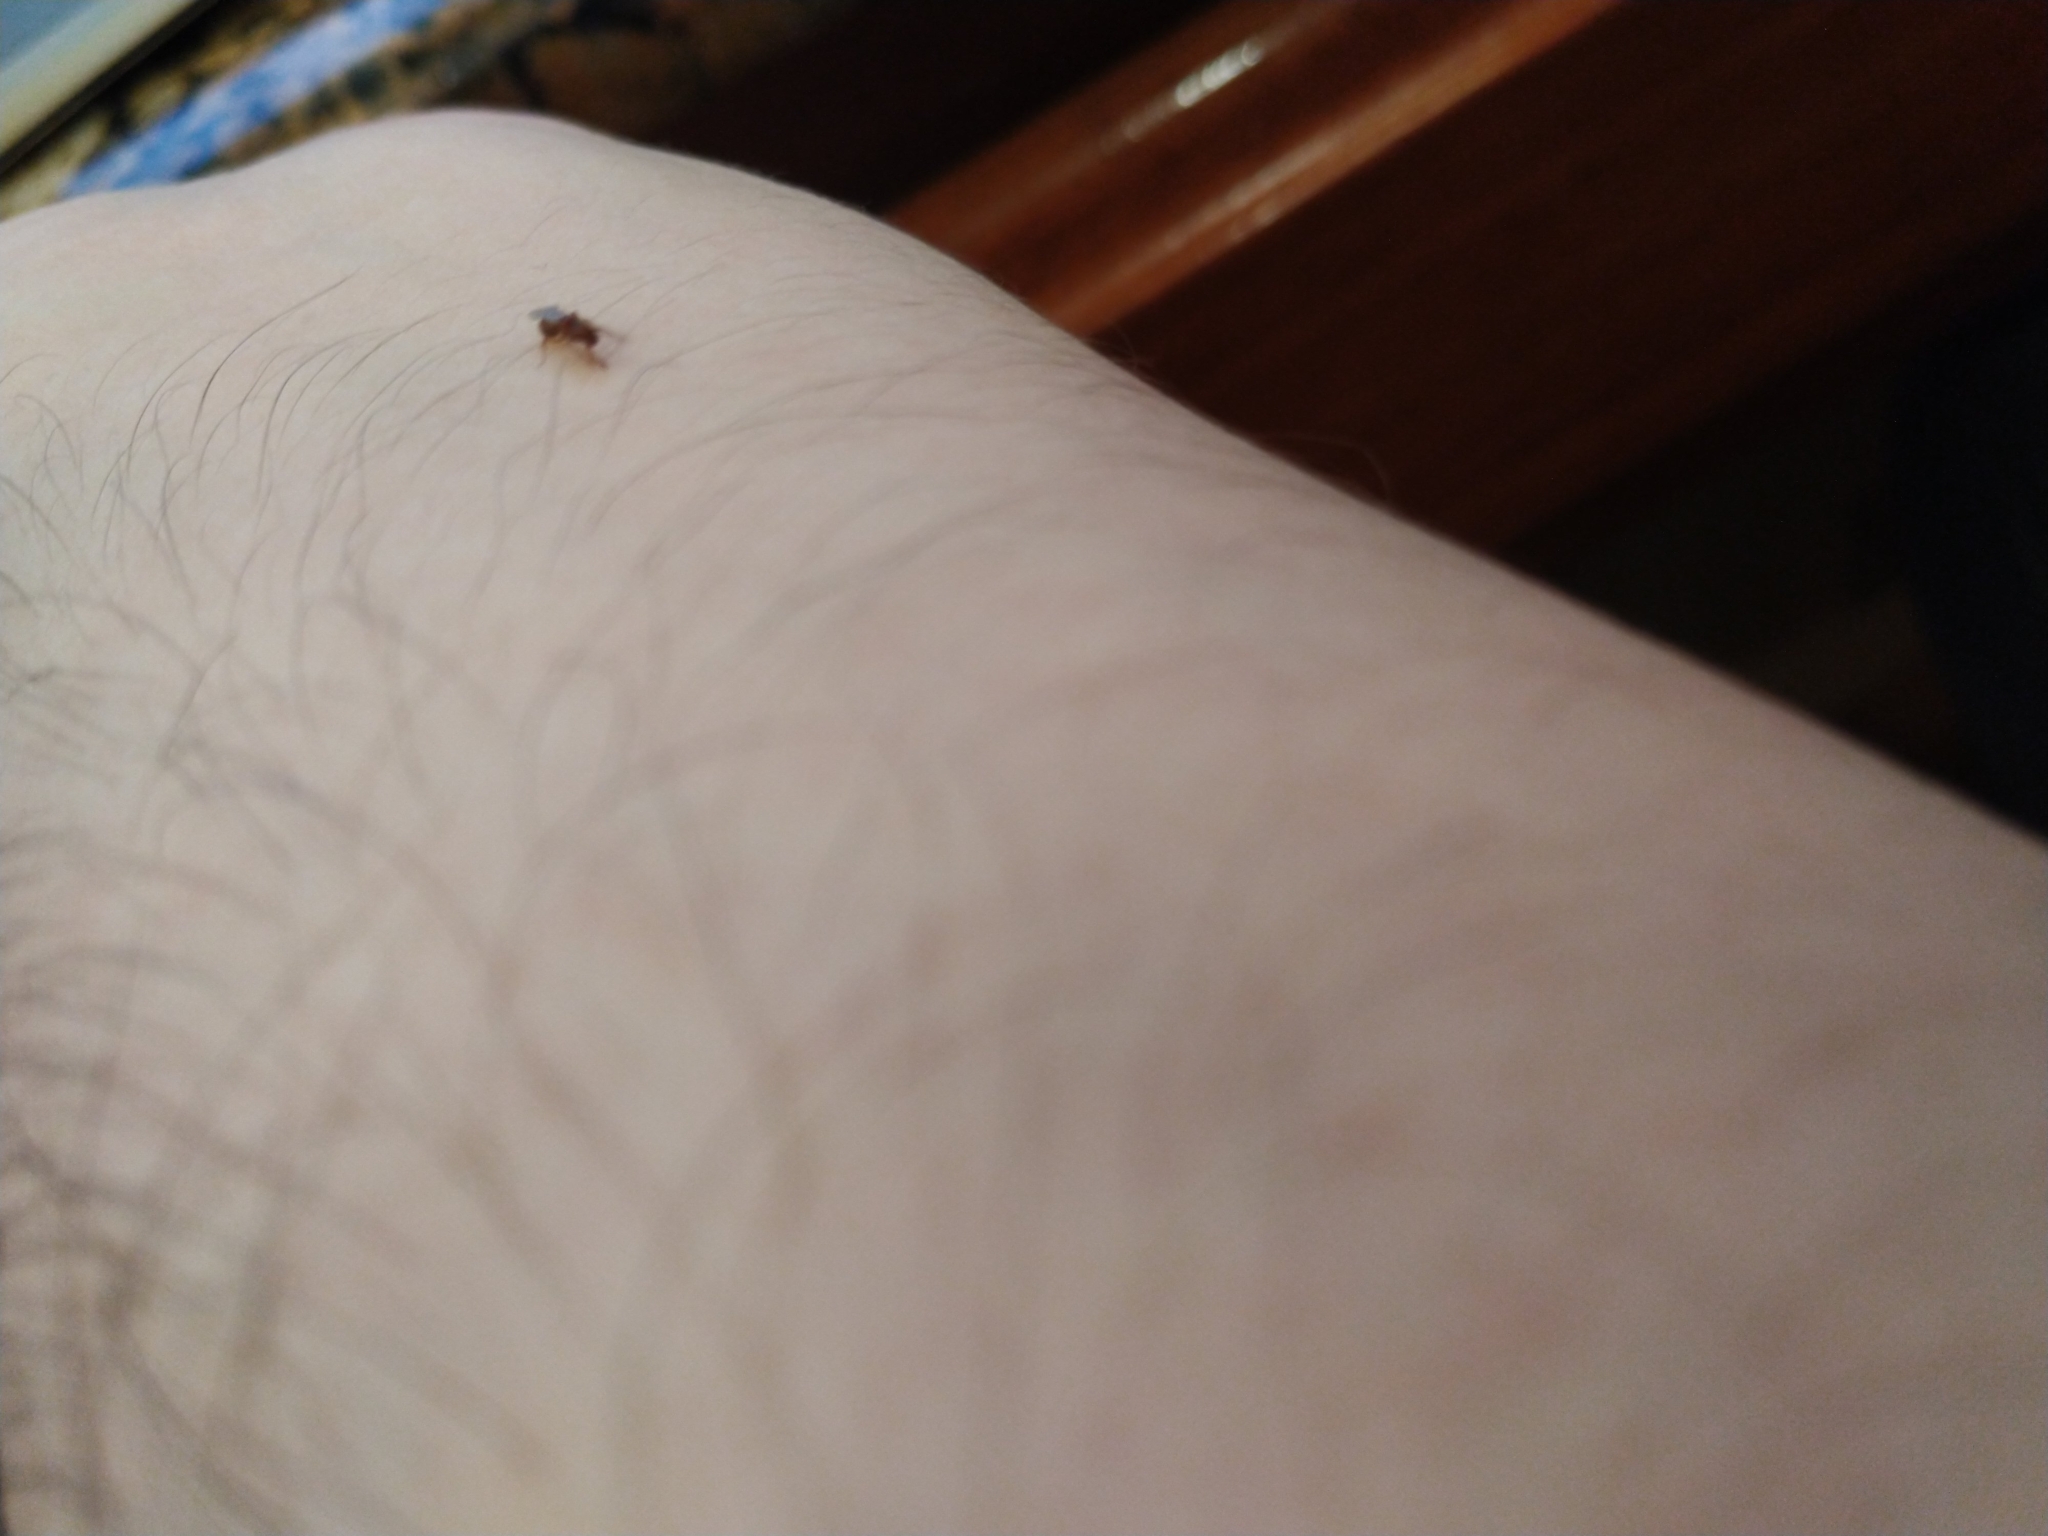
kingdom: Animalia
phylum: Arthropoda
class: Insecta
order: Hymenoptera
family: Formicidae
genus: Tetramorium
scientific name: Tetramorium bicarinatum
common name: Guinea ant
